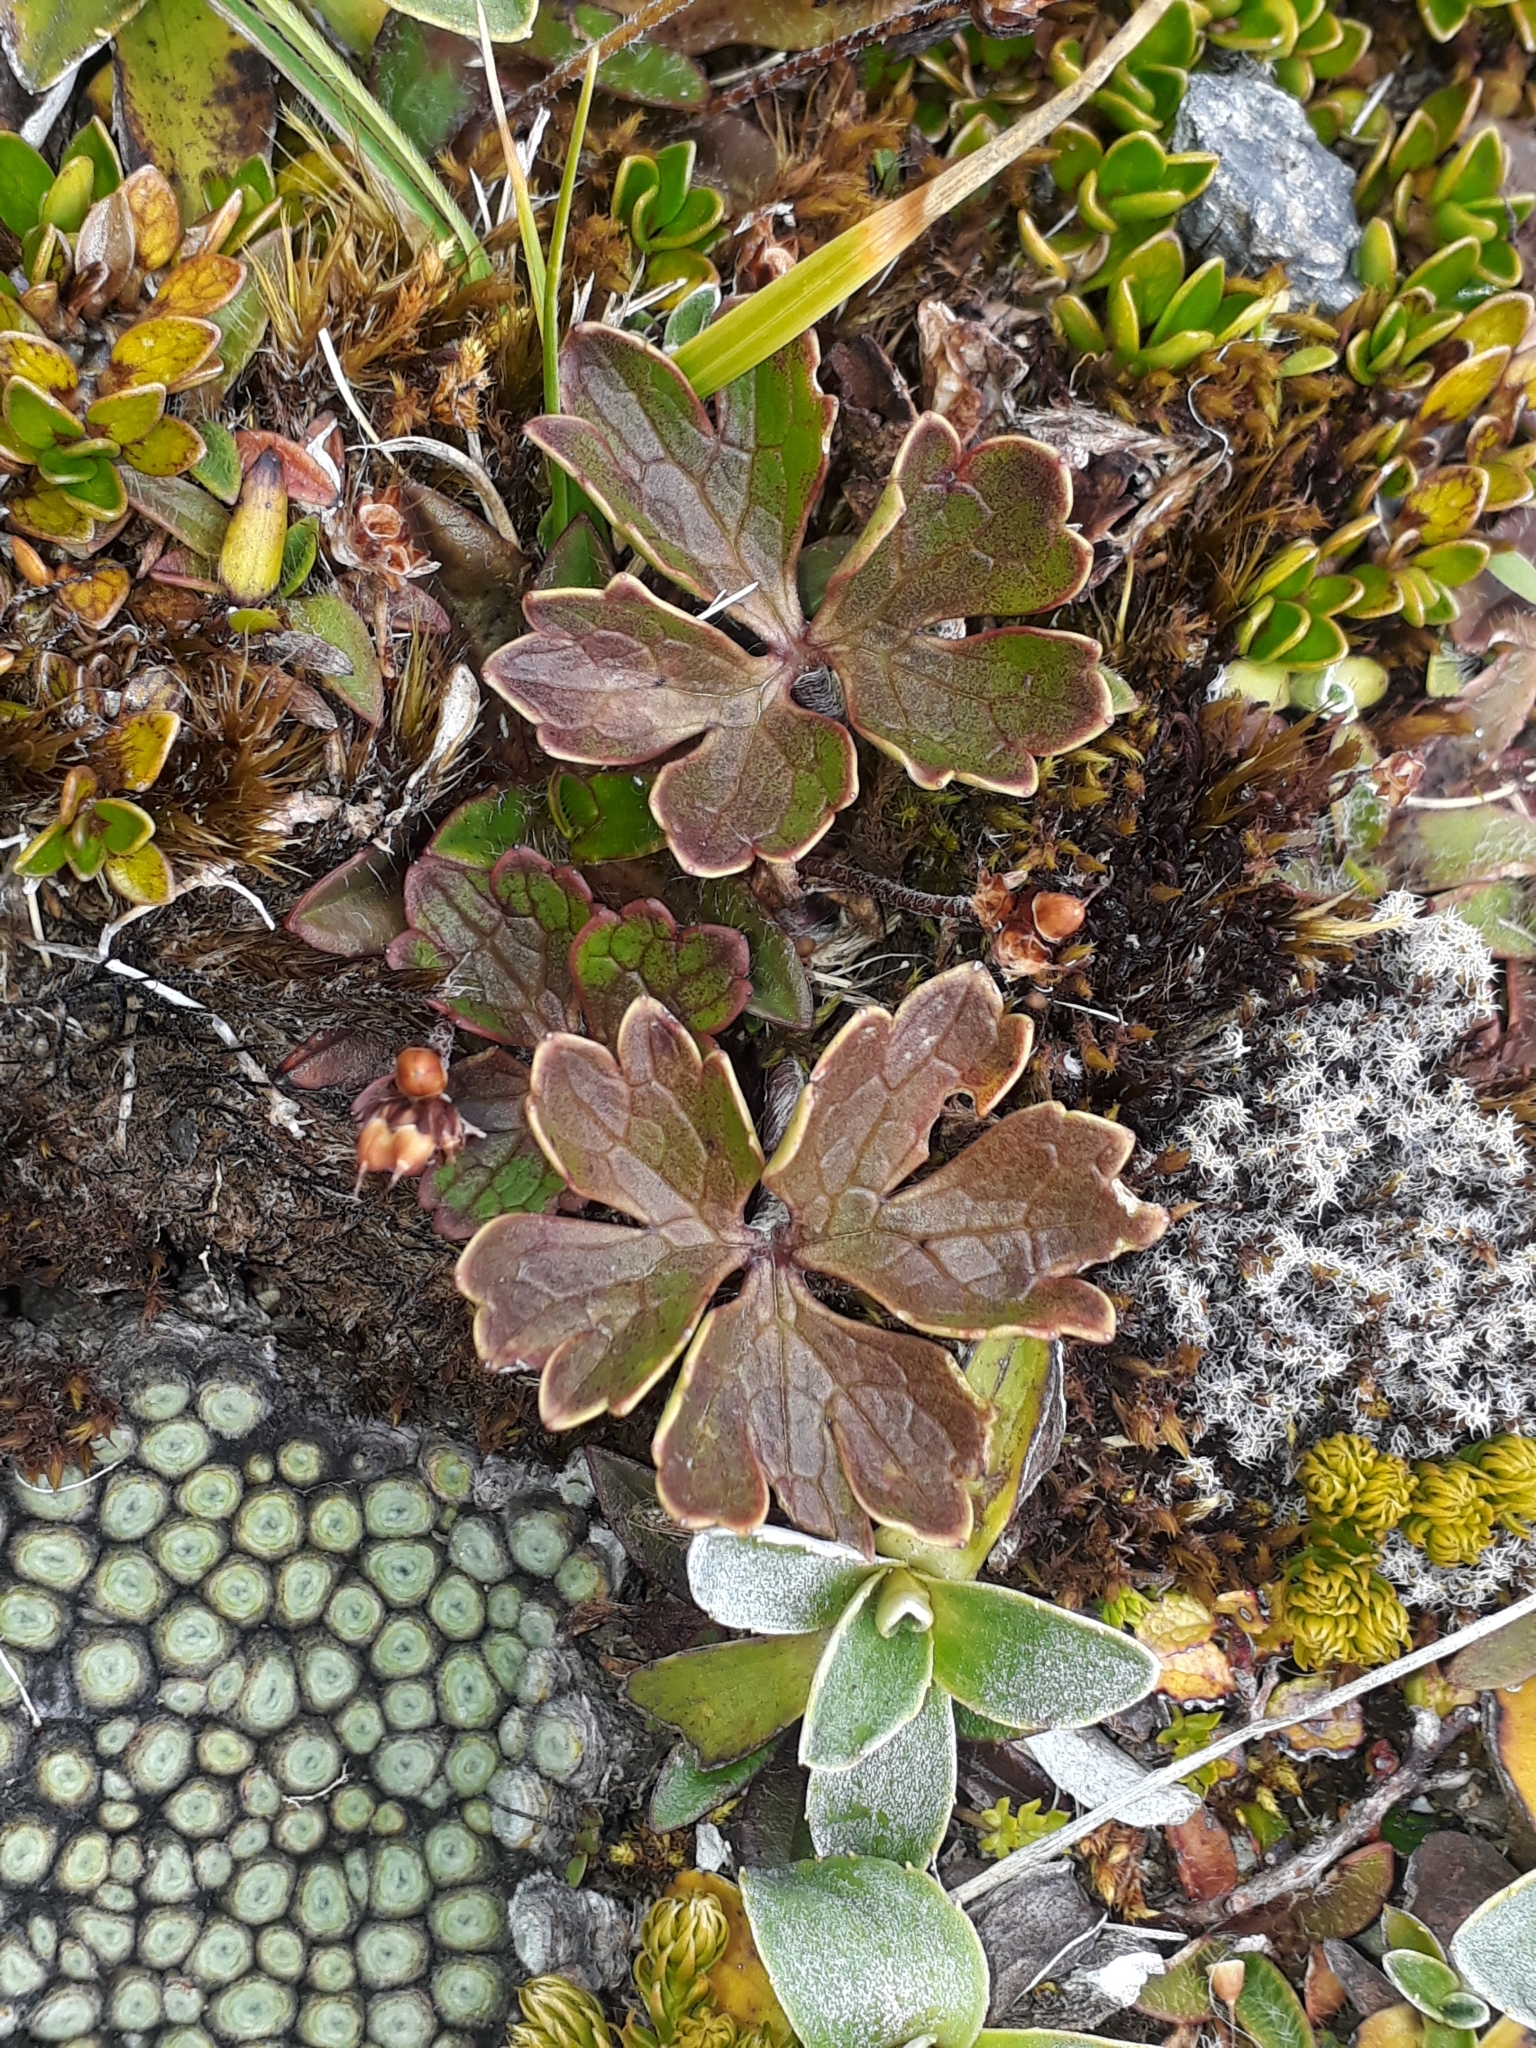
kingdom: Plantae
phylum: Tracheophyta
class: Magnoliopsida
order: Ranunculales
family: Ranunculaceae
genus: Ranunculus
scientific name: Ranunculus verticillatus
